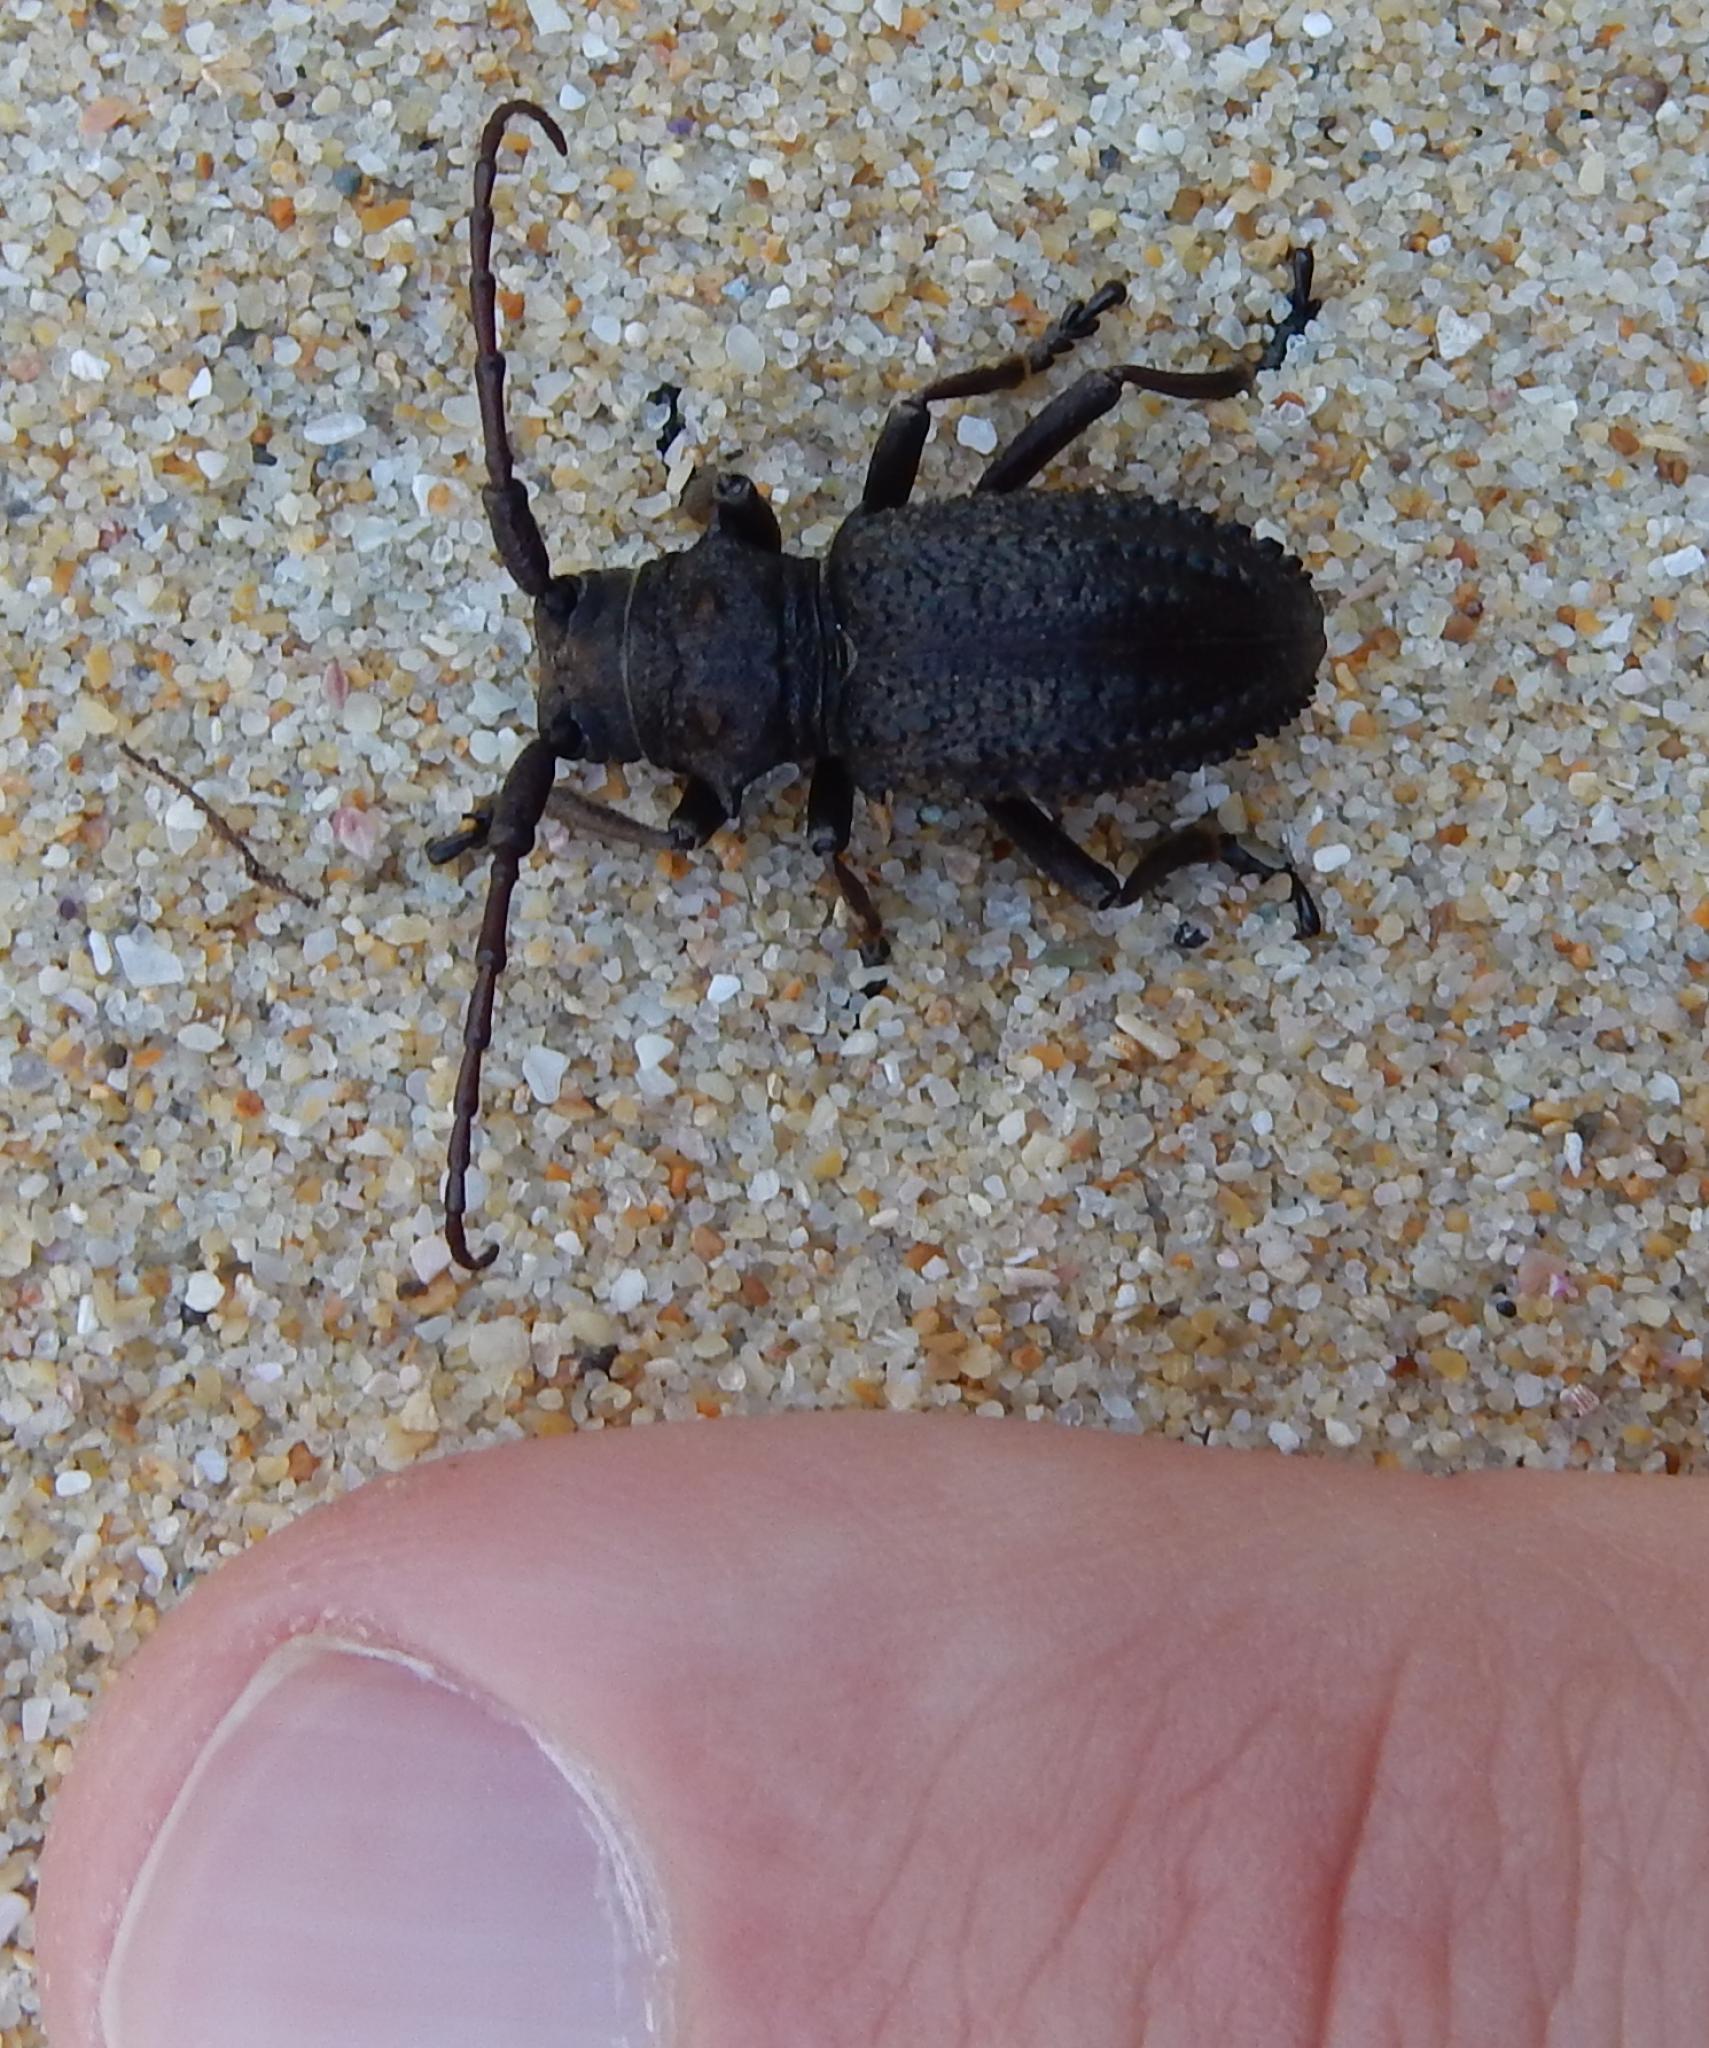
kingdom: Animalia
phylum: Arthropoda
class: Insecta
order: Coleoptera
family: Cerambycidae
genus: Phrissoma
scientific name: Phrissoma crispum
